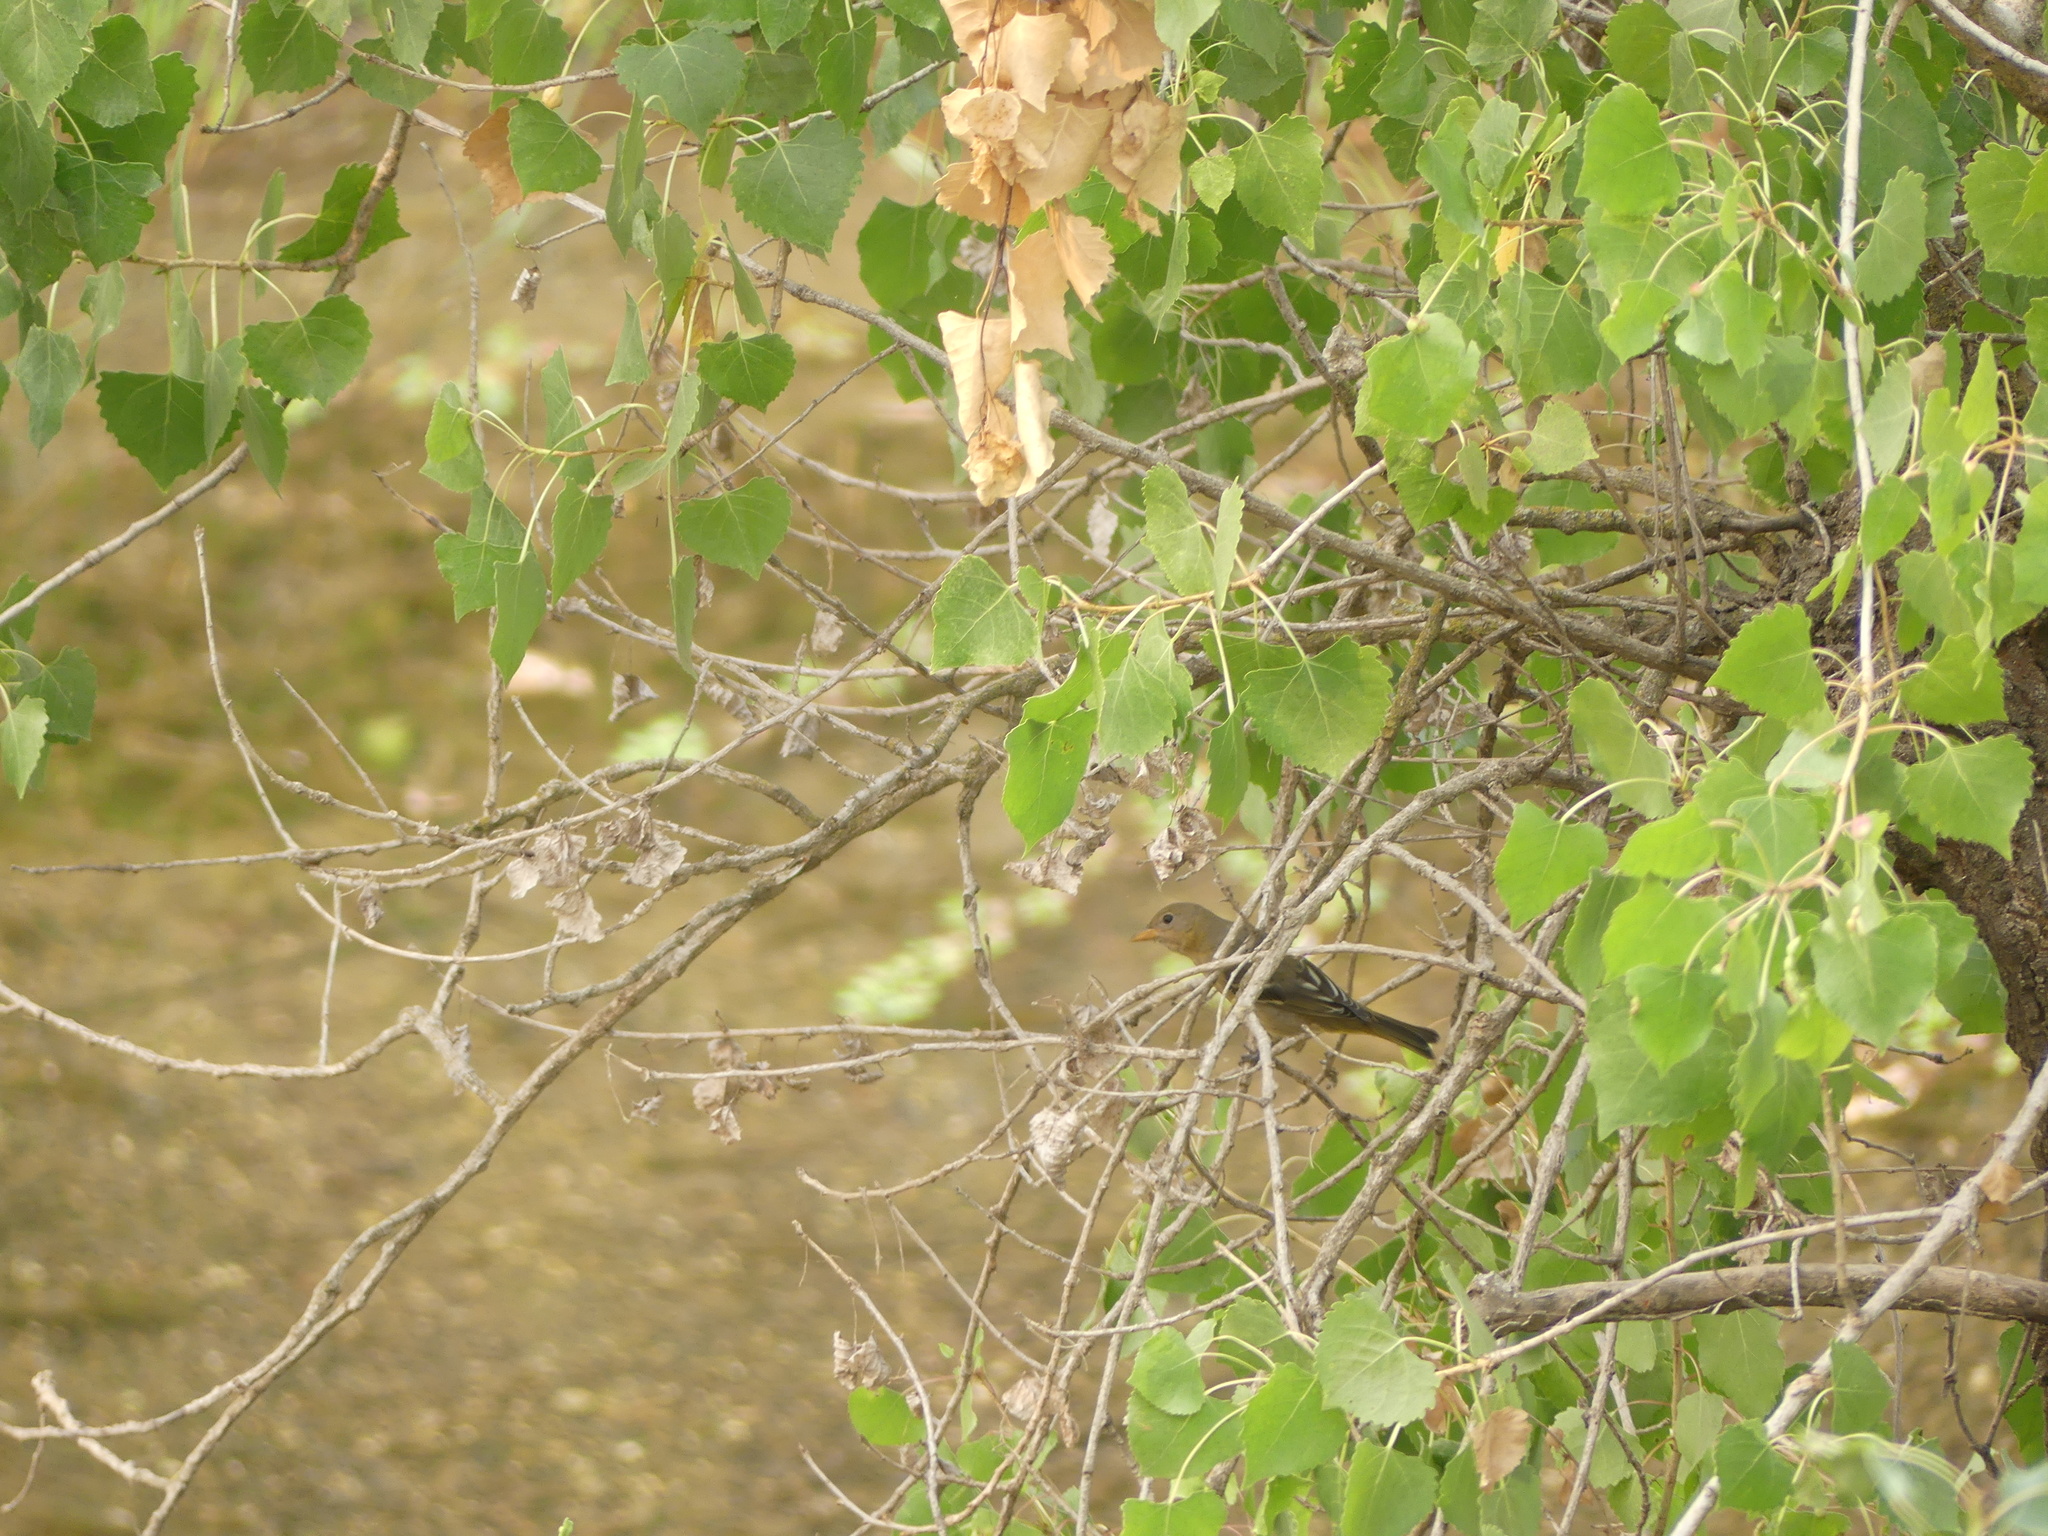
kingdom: Animalia
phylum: Chordata
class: Aves
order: Passeriformes
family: Cardinalidae
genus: Piranga
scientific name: Piranga ludoviciana
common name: Western tanager
